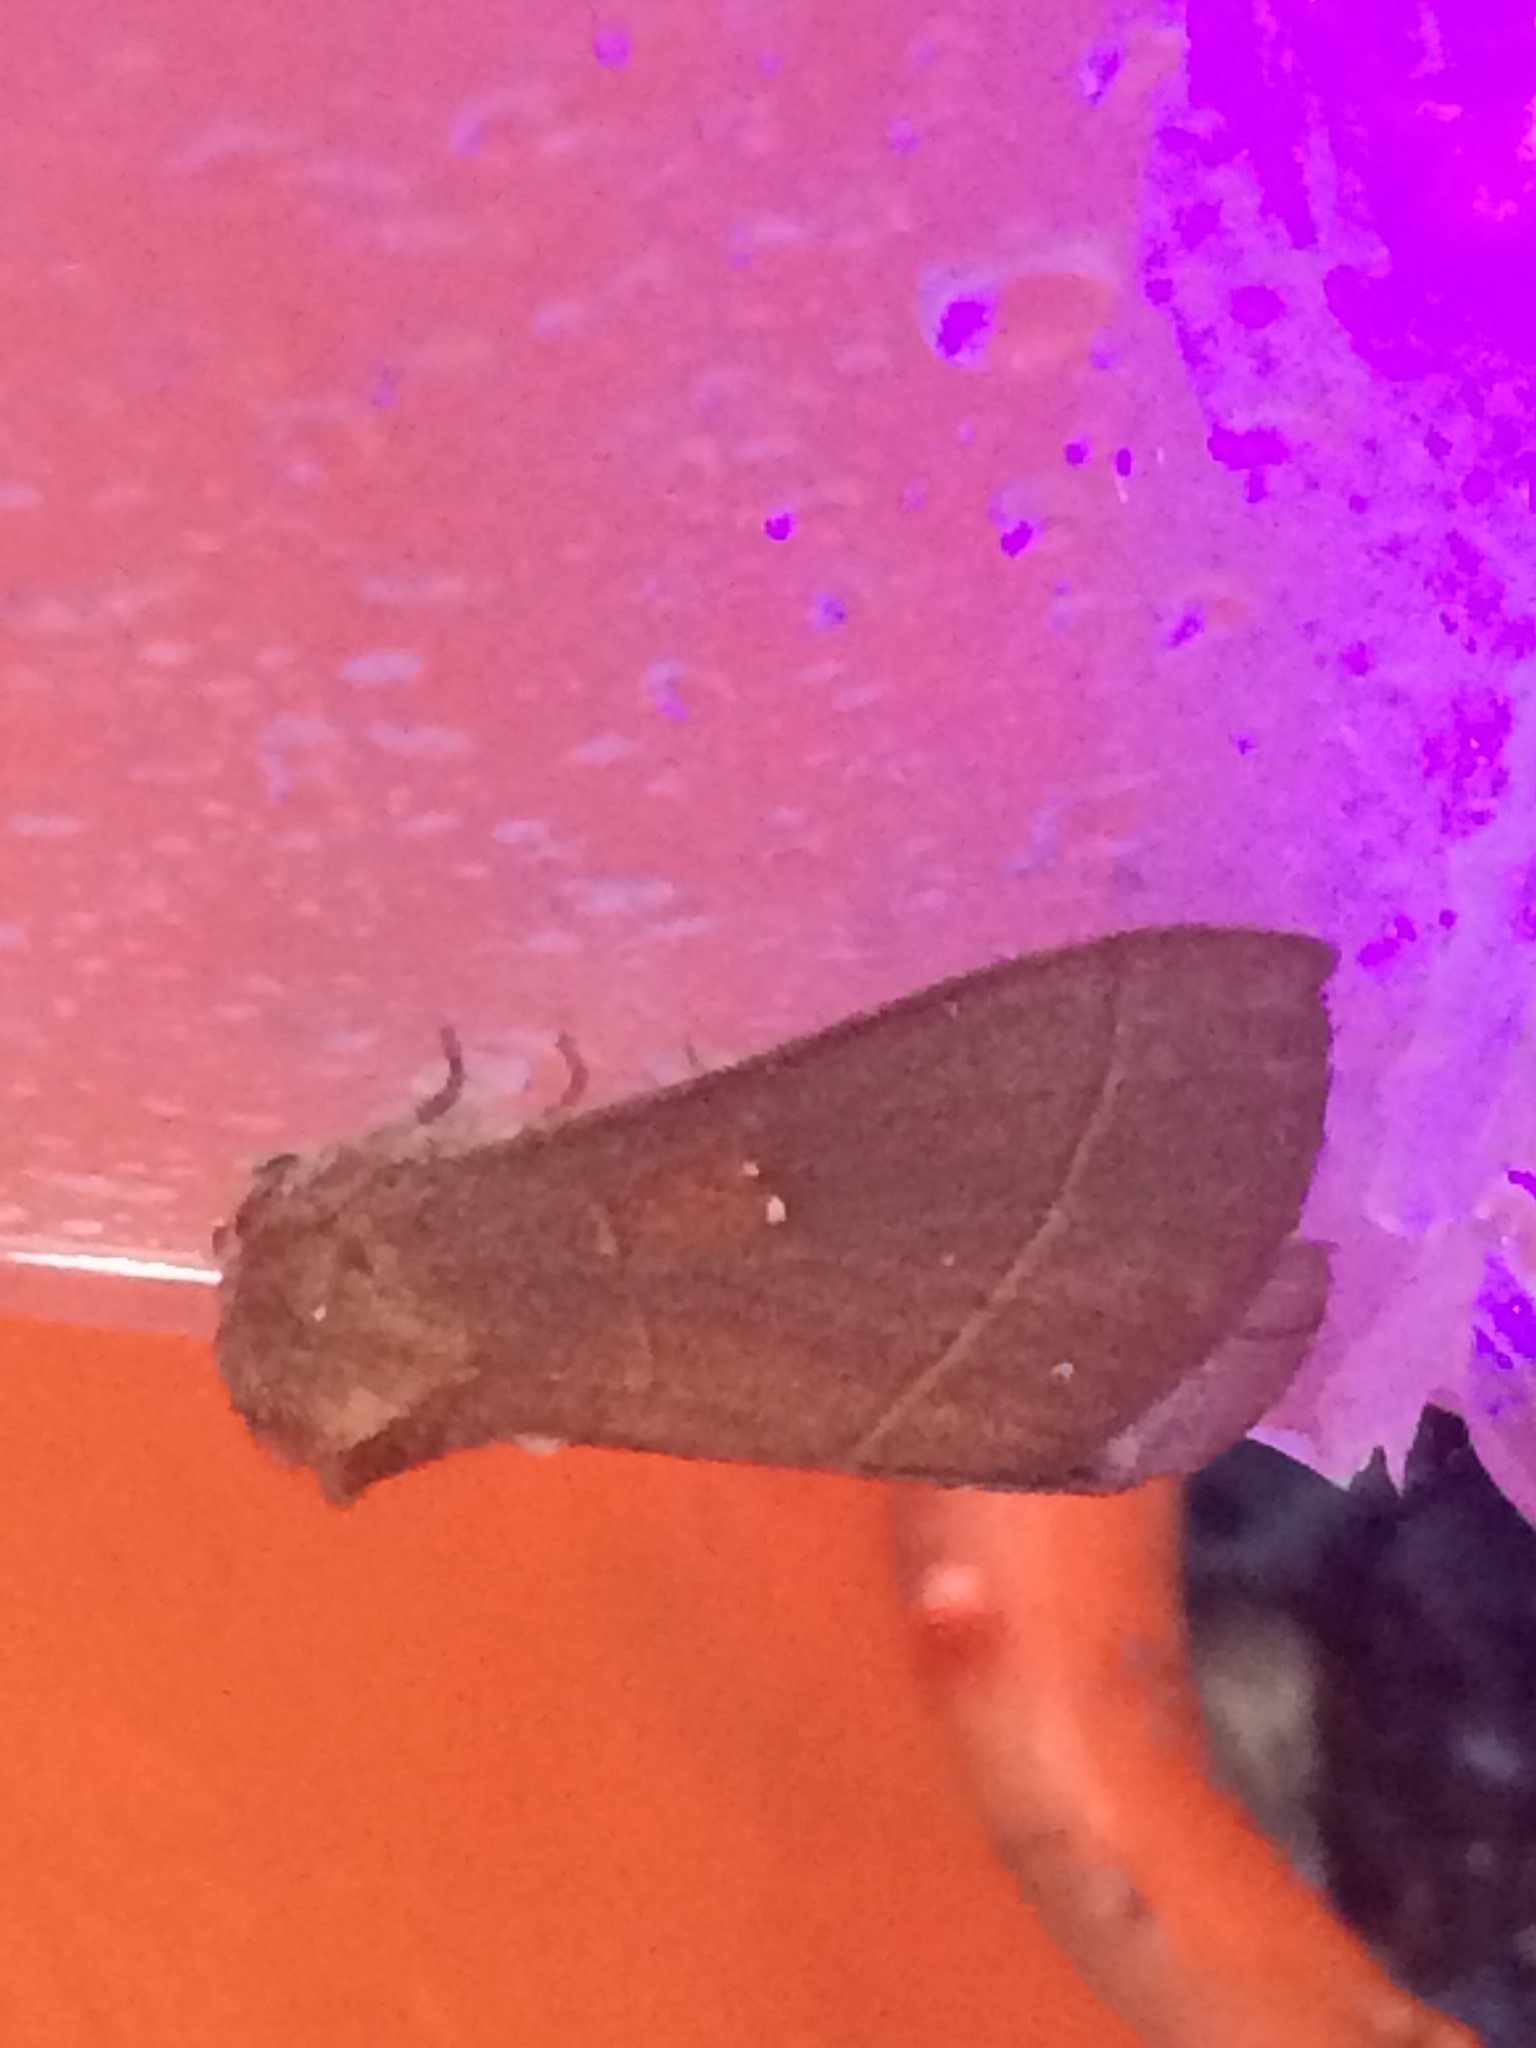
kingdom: Animalia
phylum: Arthropoda
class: Insecta
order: Lepidoptera
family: Notodontidae
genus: Nadata
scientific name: Nadata gibbosa
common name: White-dotted prominent
